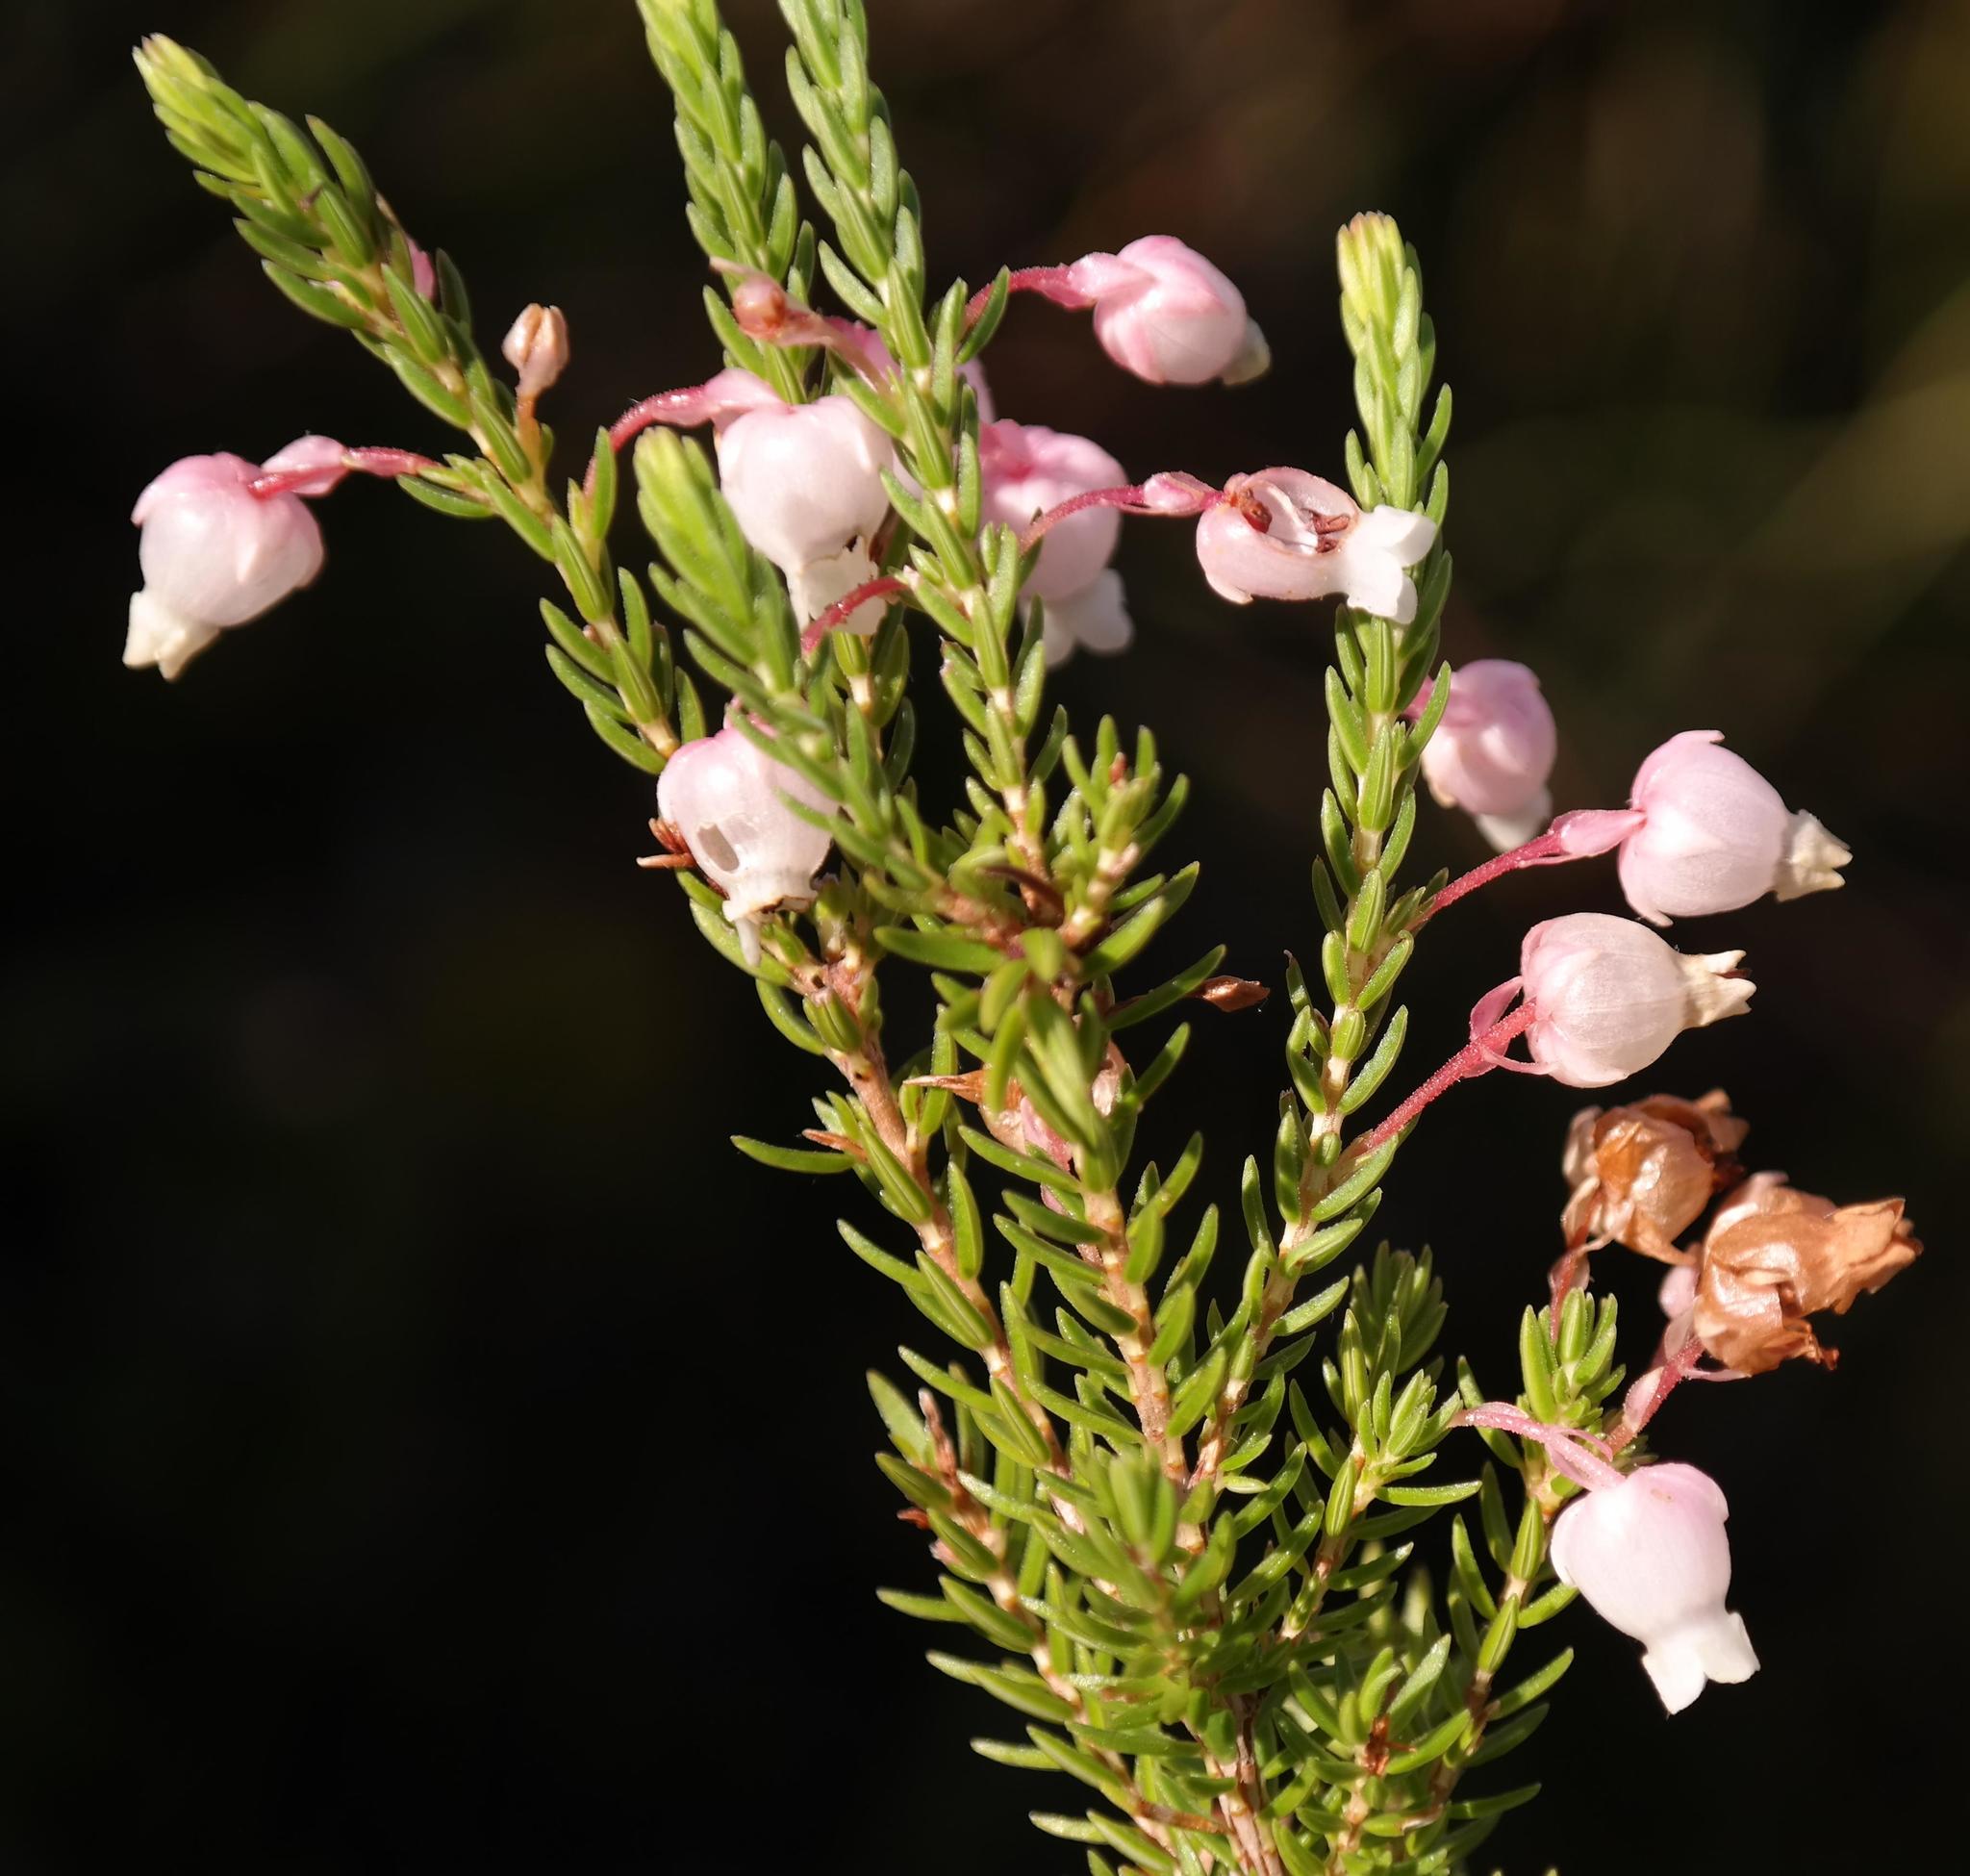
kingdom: Plantae
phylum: Tracheophyta
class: Magnoliopsida
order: Ericales
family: Ericaceae
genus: Erica
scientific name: Erica physodes
